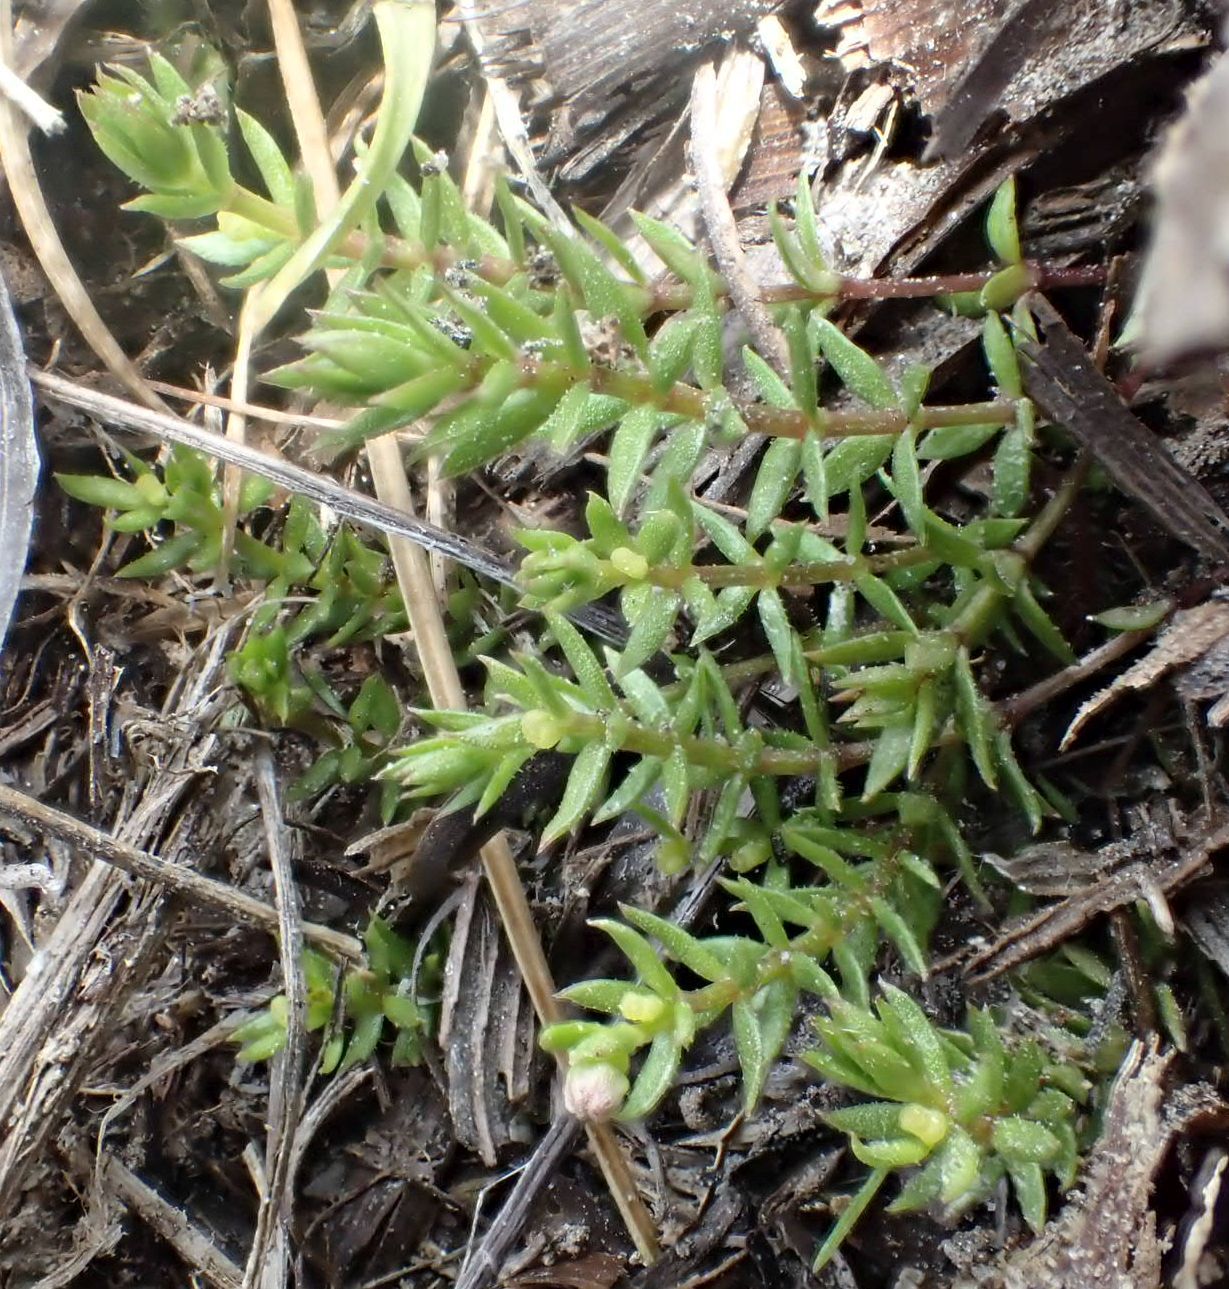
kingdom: Plantae
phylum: Tracheophyta
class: Magnoliopsida
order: Gentianales
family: Rubiaceae
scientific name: Rubiaceae
